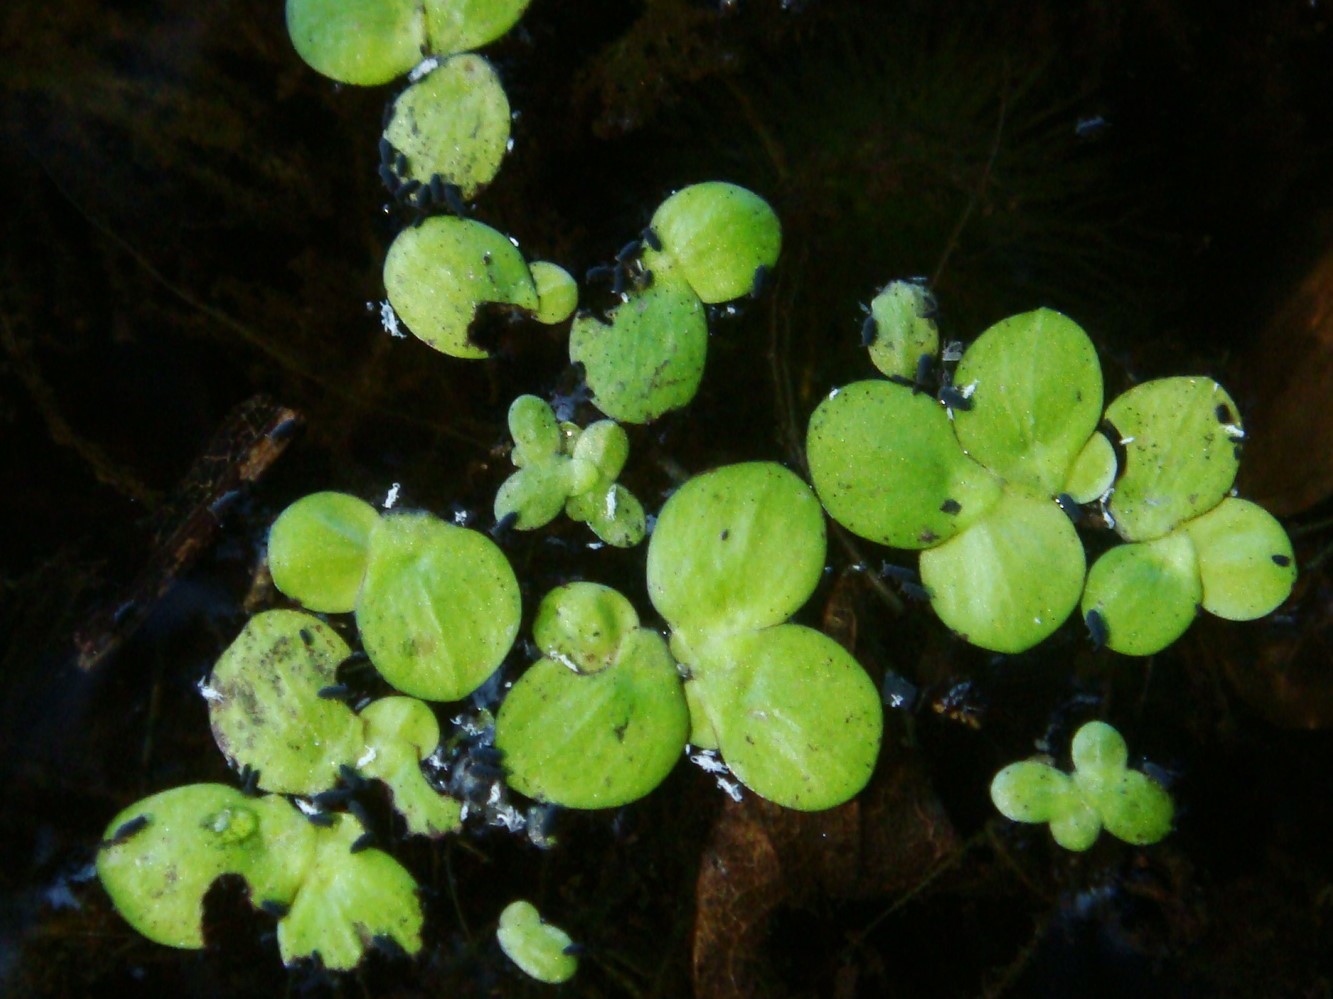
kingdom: Plantae
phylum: Tracheophyta
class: Liliopsida
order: Alismatales
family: Araceae
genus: Spirodela
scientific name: Spirodela polyrhiza
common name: Great duckweed
